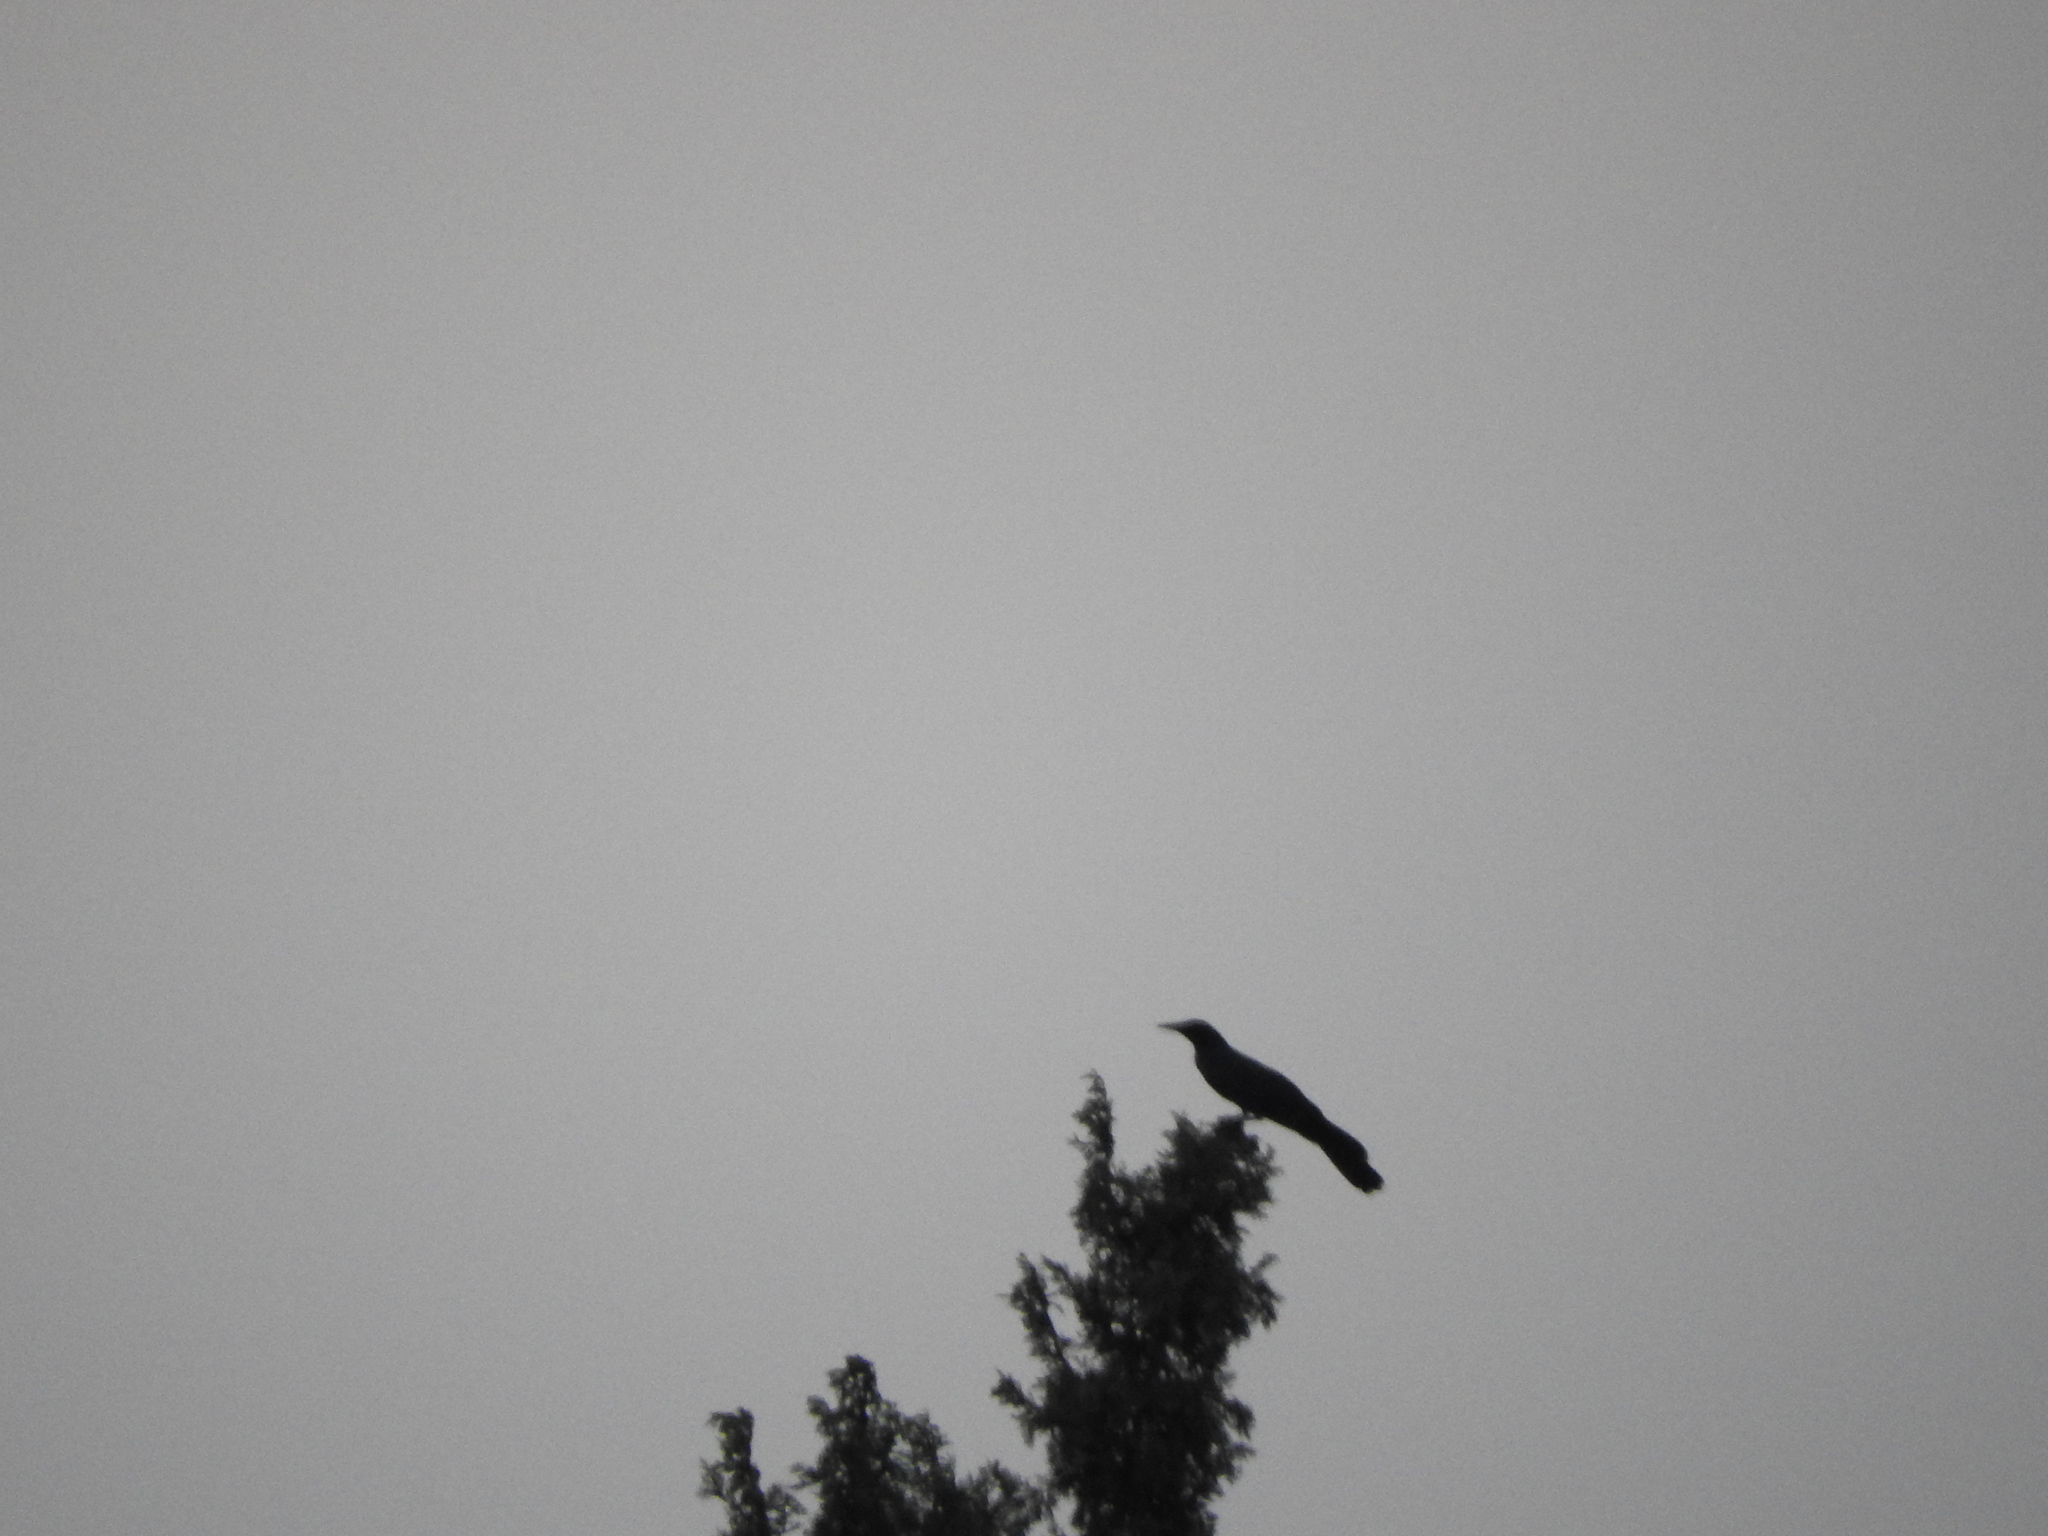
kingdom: Animalia
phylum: Chordata
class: Aves
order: Passeriformes
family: Icteridae
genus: Quiscalus
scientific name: Quiscalus mexicanus
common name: Great-tailed grackle
